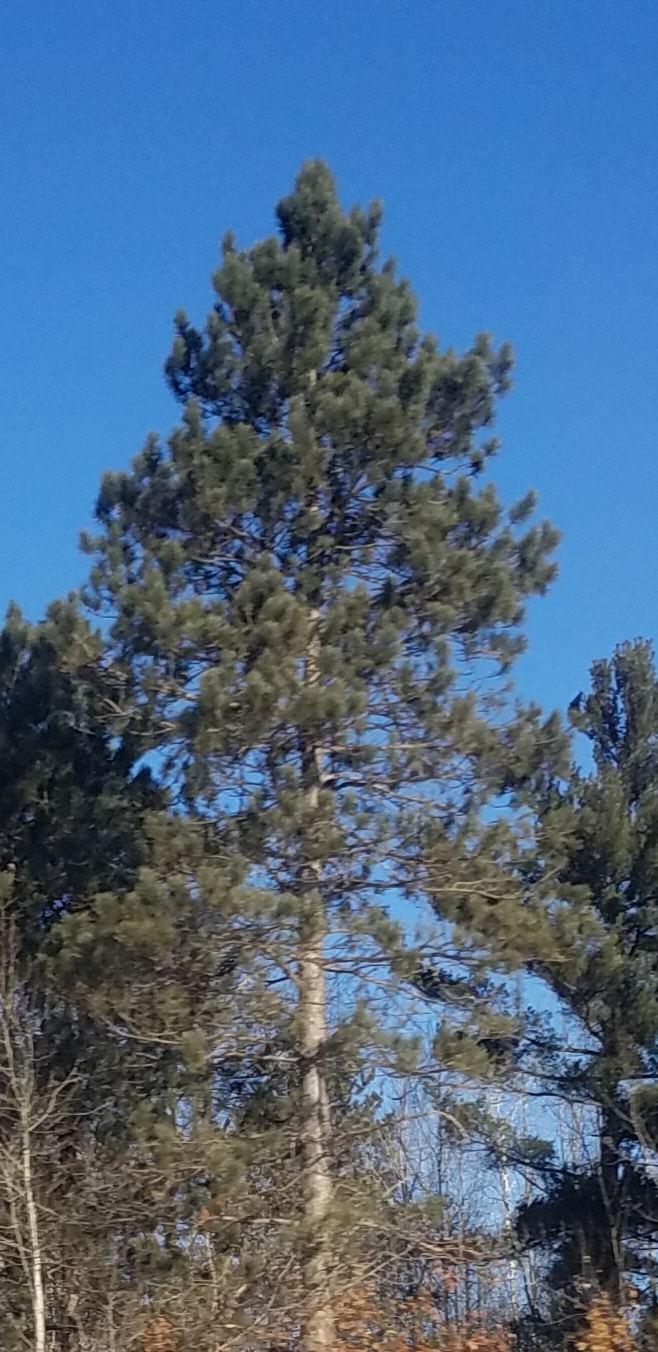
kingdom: Plantae
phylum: Tracheophyta
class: Pinopsida
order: Pinales
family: Pinaceae
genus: Pinus
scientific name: Pinus resinosa
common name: Norway pine
